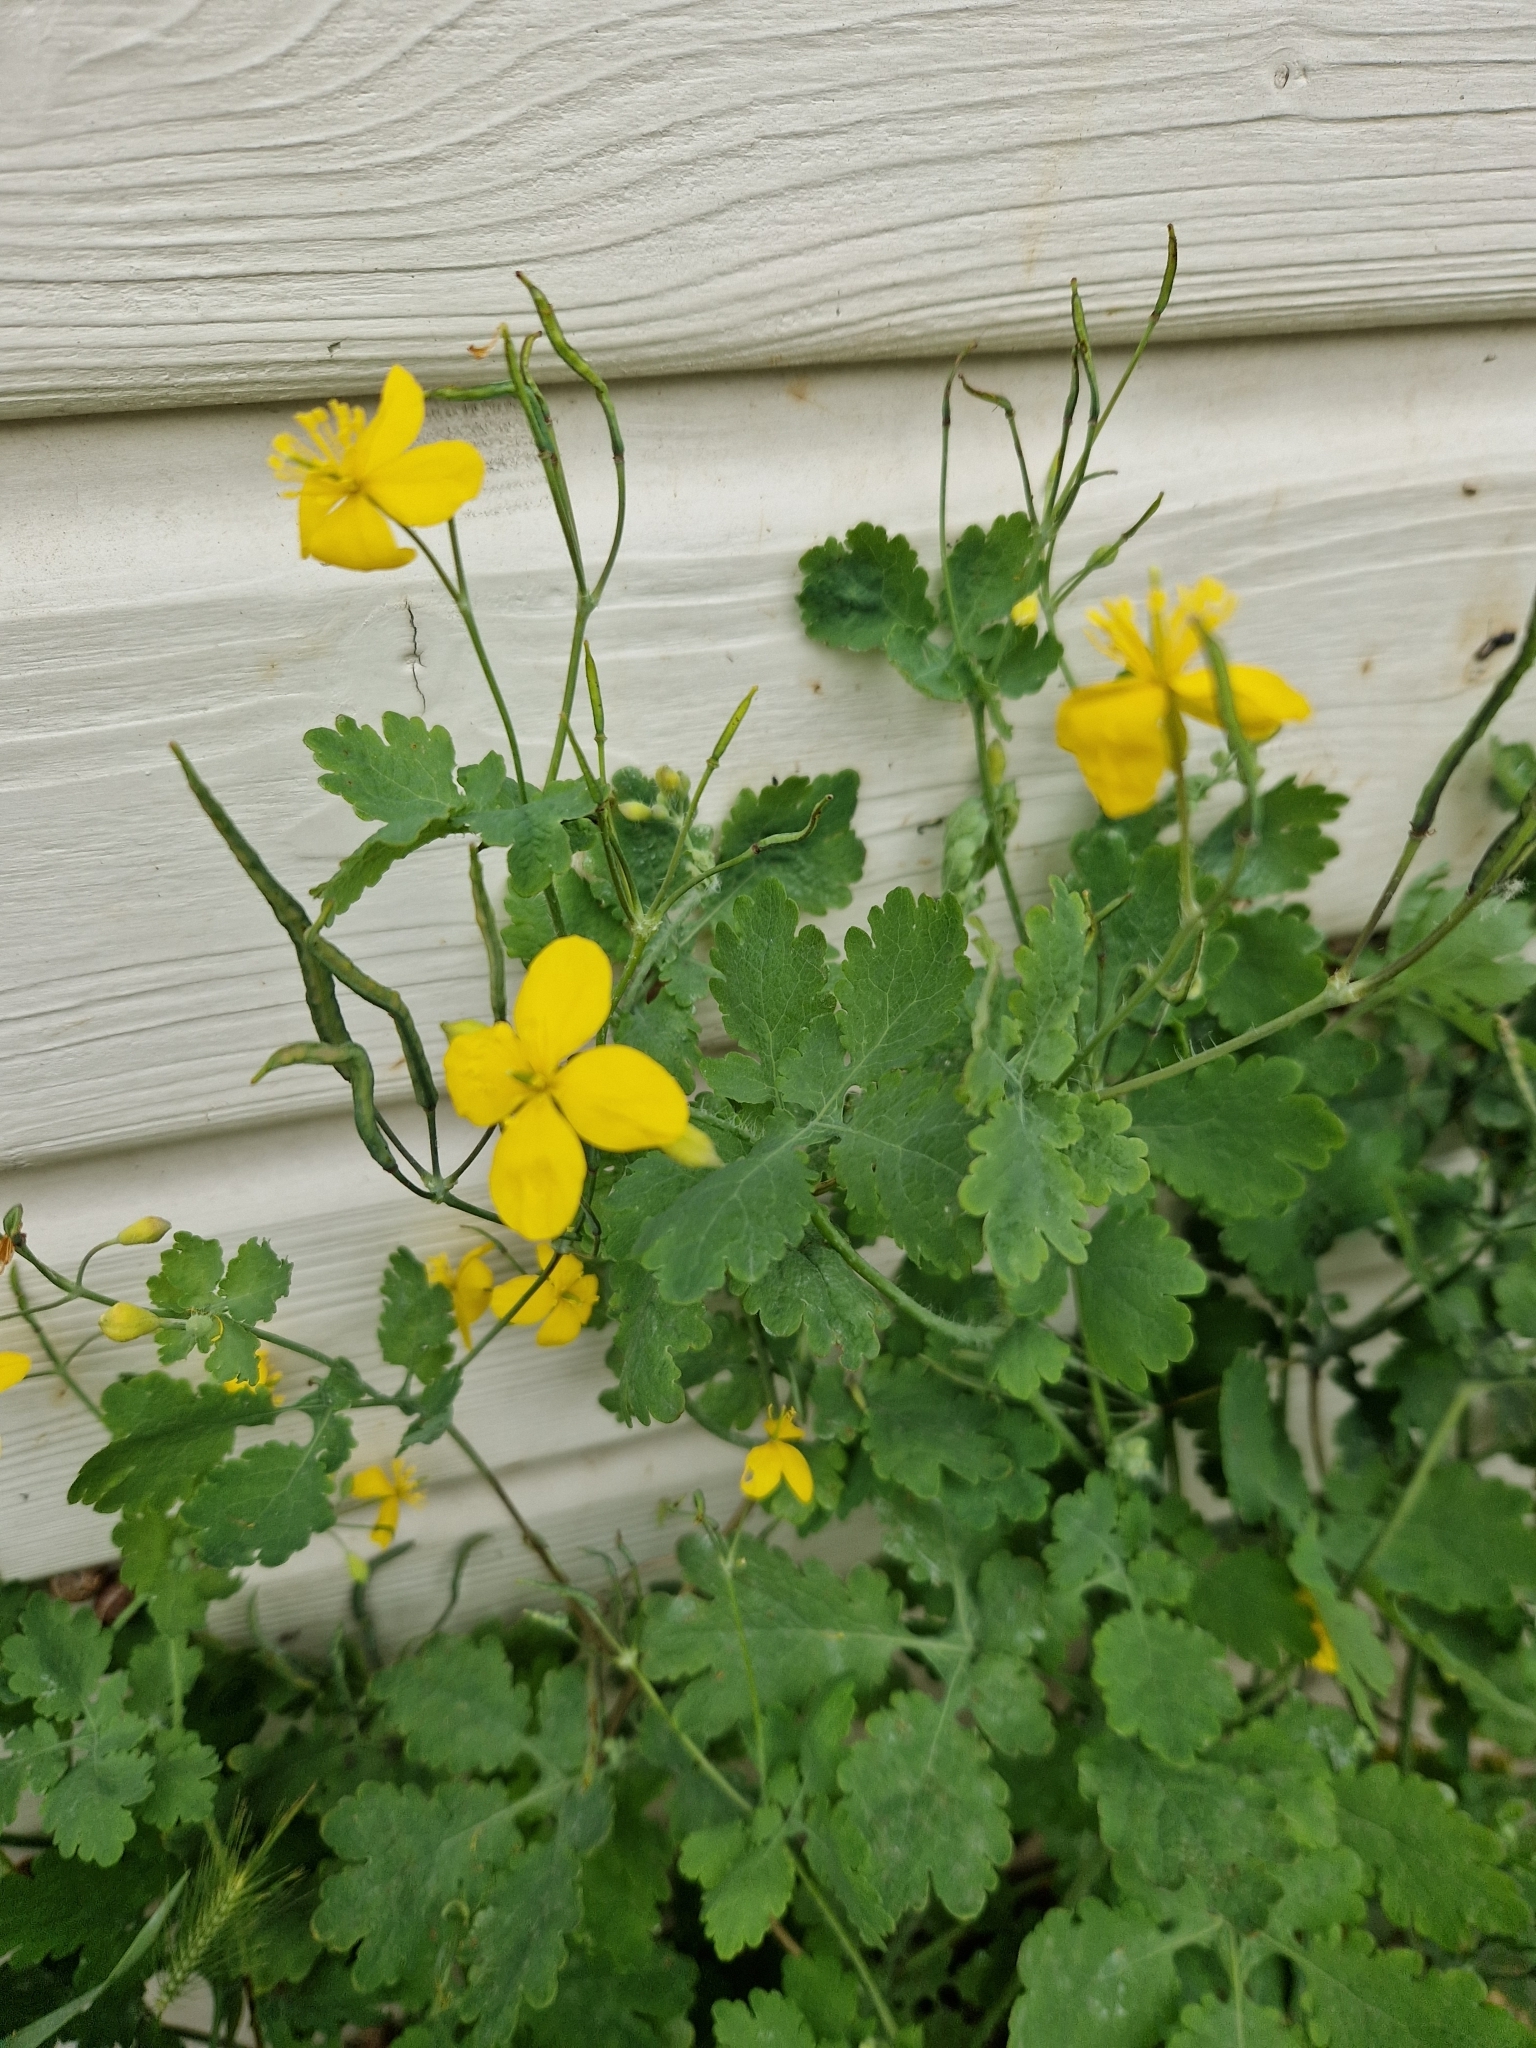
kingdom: Plantae
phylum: Tracheophyta
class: Magnoliopsida
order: Ranunculales
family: Papaveraceae
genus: Chelidonium
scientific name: Chelidonium majus
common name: Greater celandine
